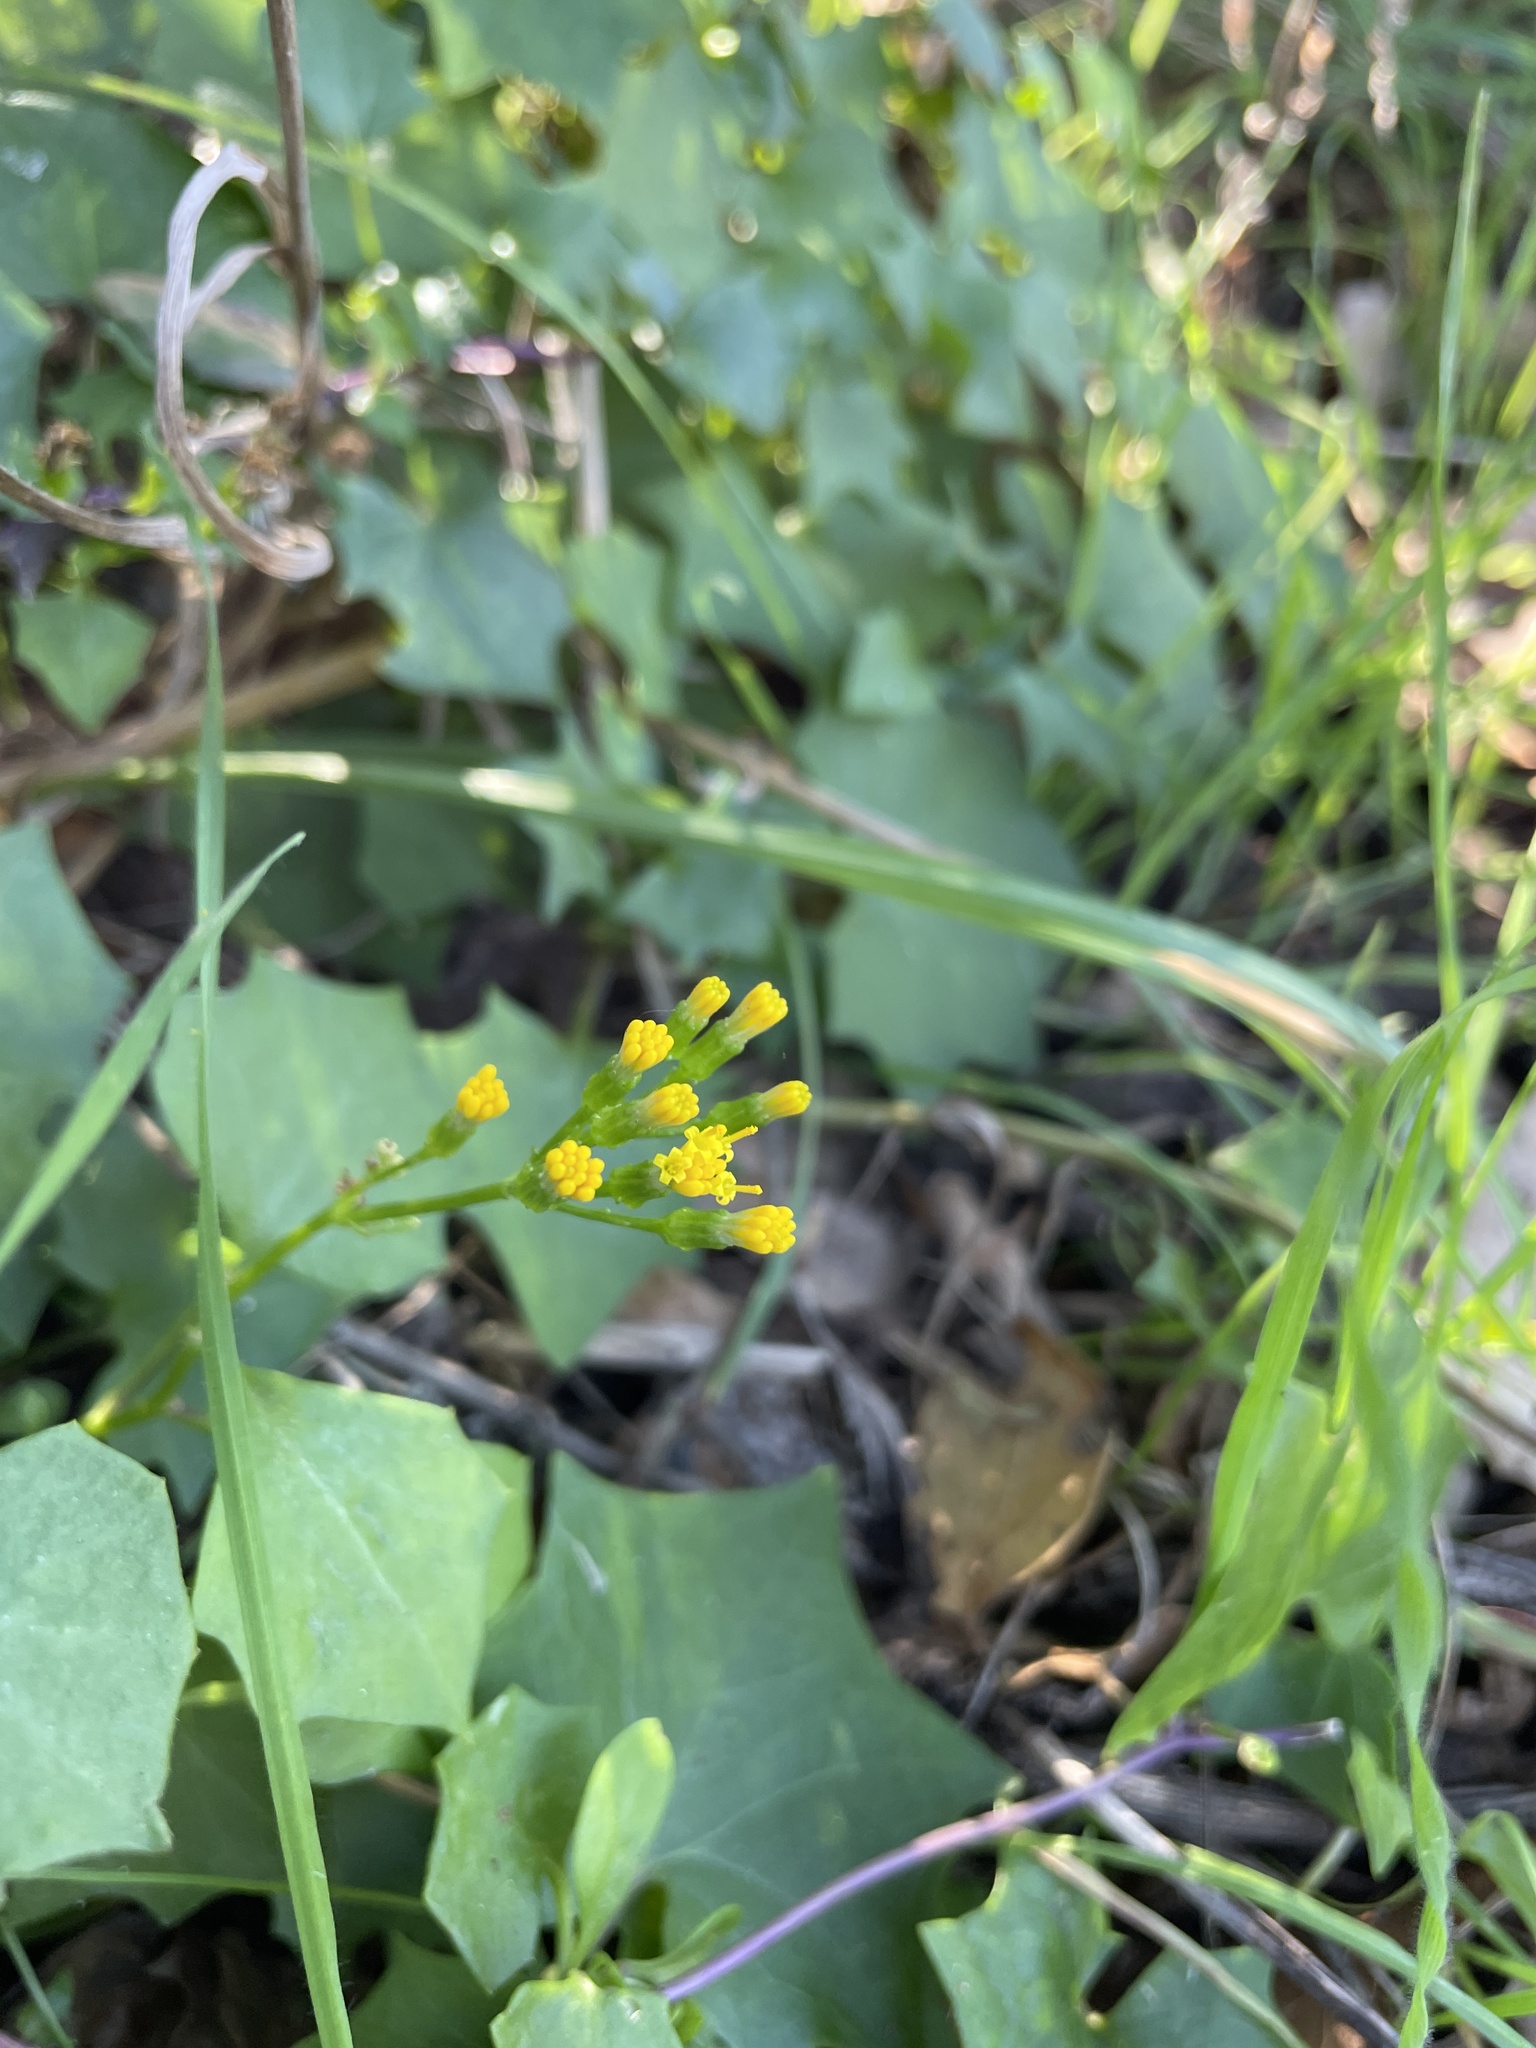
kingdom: Plantae
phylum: Tracheophyta
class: Magnoliopsida
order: Asterales
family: Asteraceae
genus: Delairea
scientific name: Delairea odorata
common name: Cape-ivy
